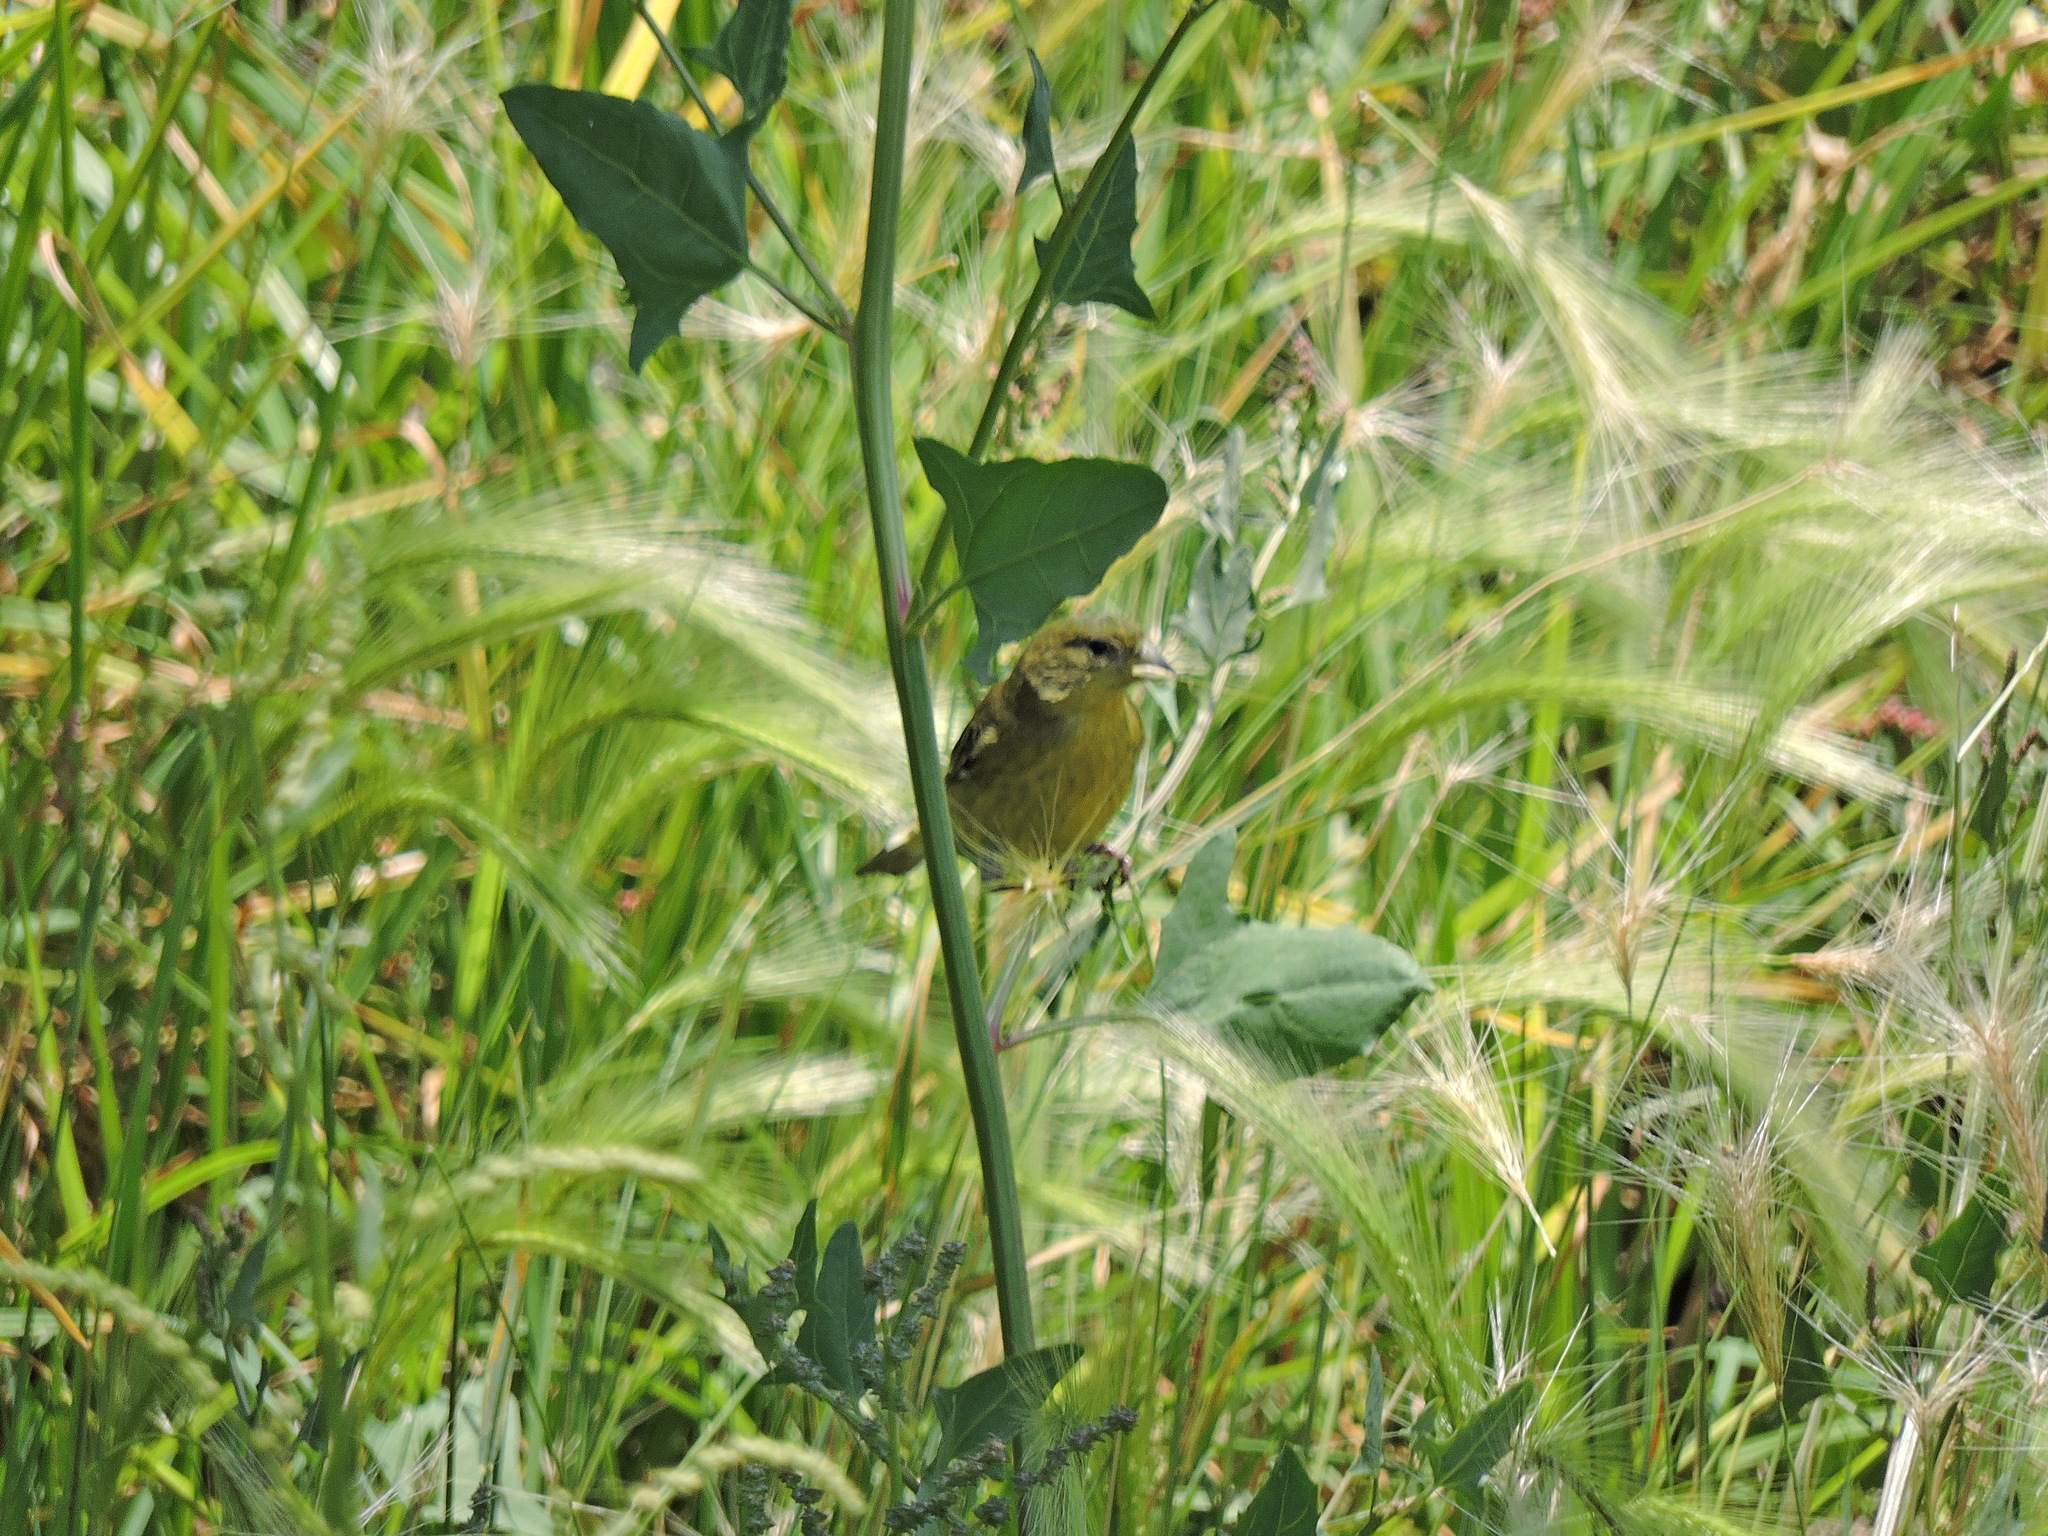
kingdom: Animalia
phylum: Chordata
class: Aves
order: Passeriformes
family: Fringillidae
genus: Spinus
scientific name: Spinus psaltria
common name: Lesser goldfinch
